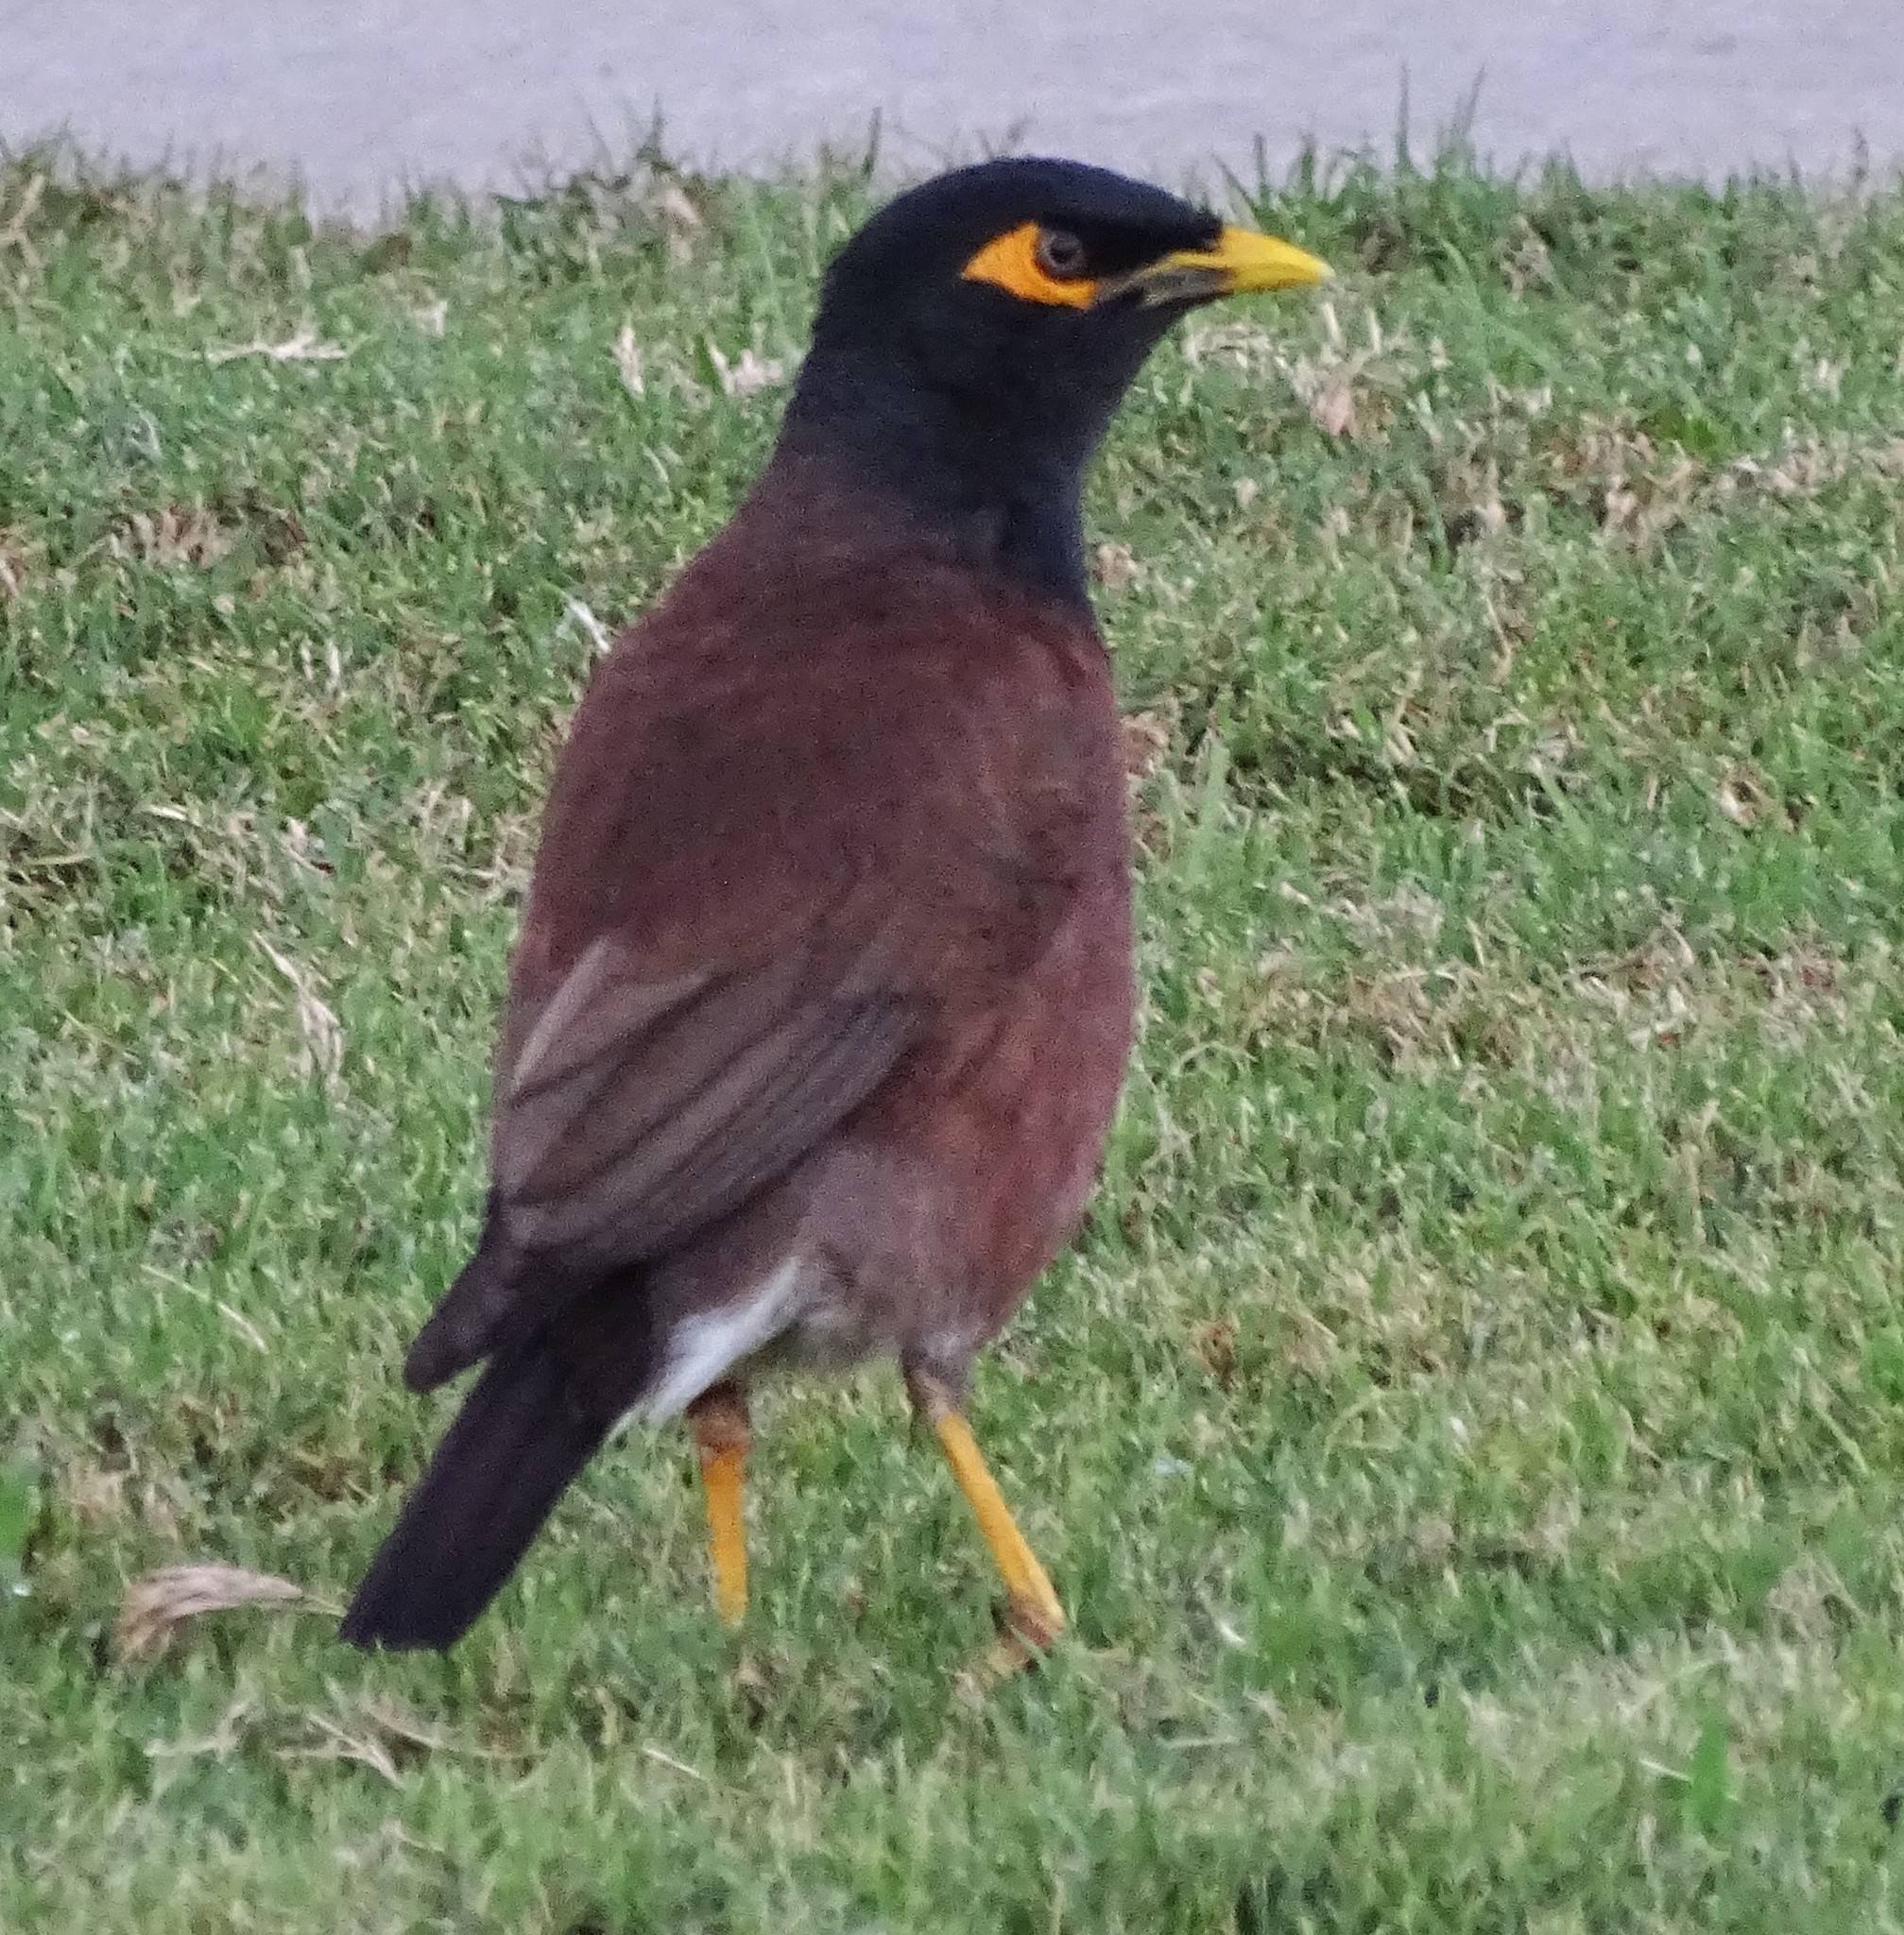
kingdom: Animalia
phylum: Chordata
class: Aves
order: Passeriformes
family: Sturnidae
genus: Acridotheres
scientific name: Acridotheres tristis
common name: Common myna
